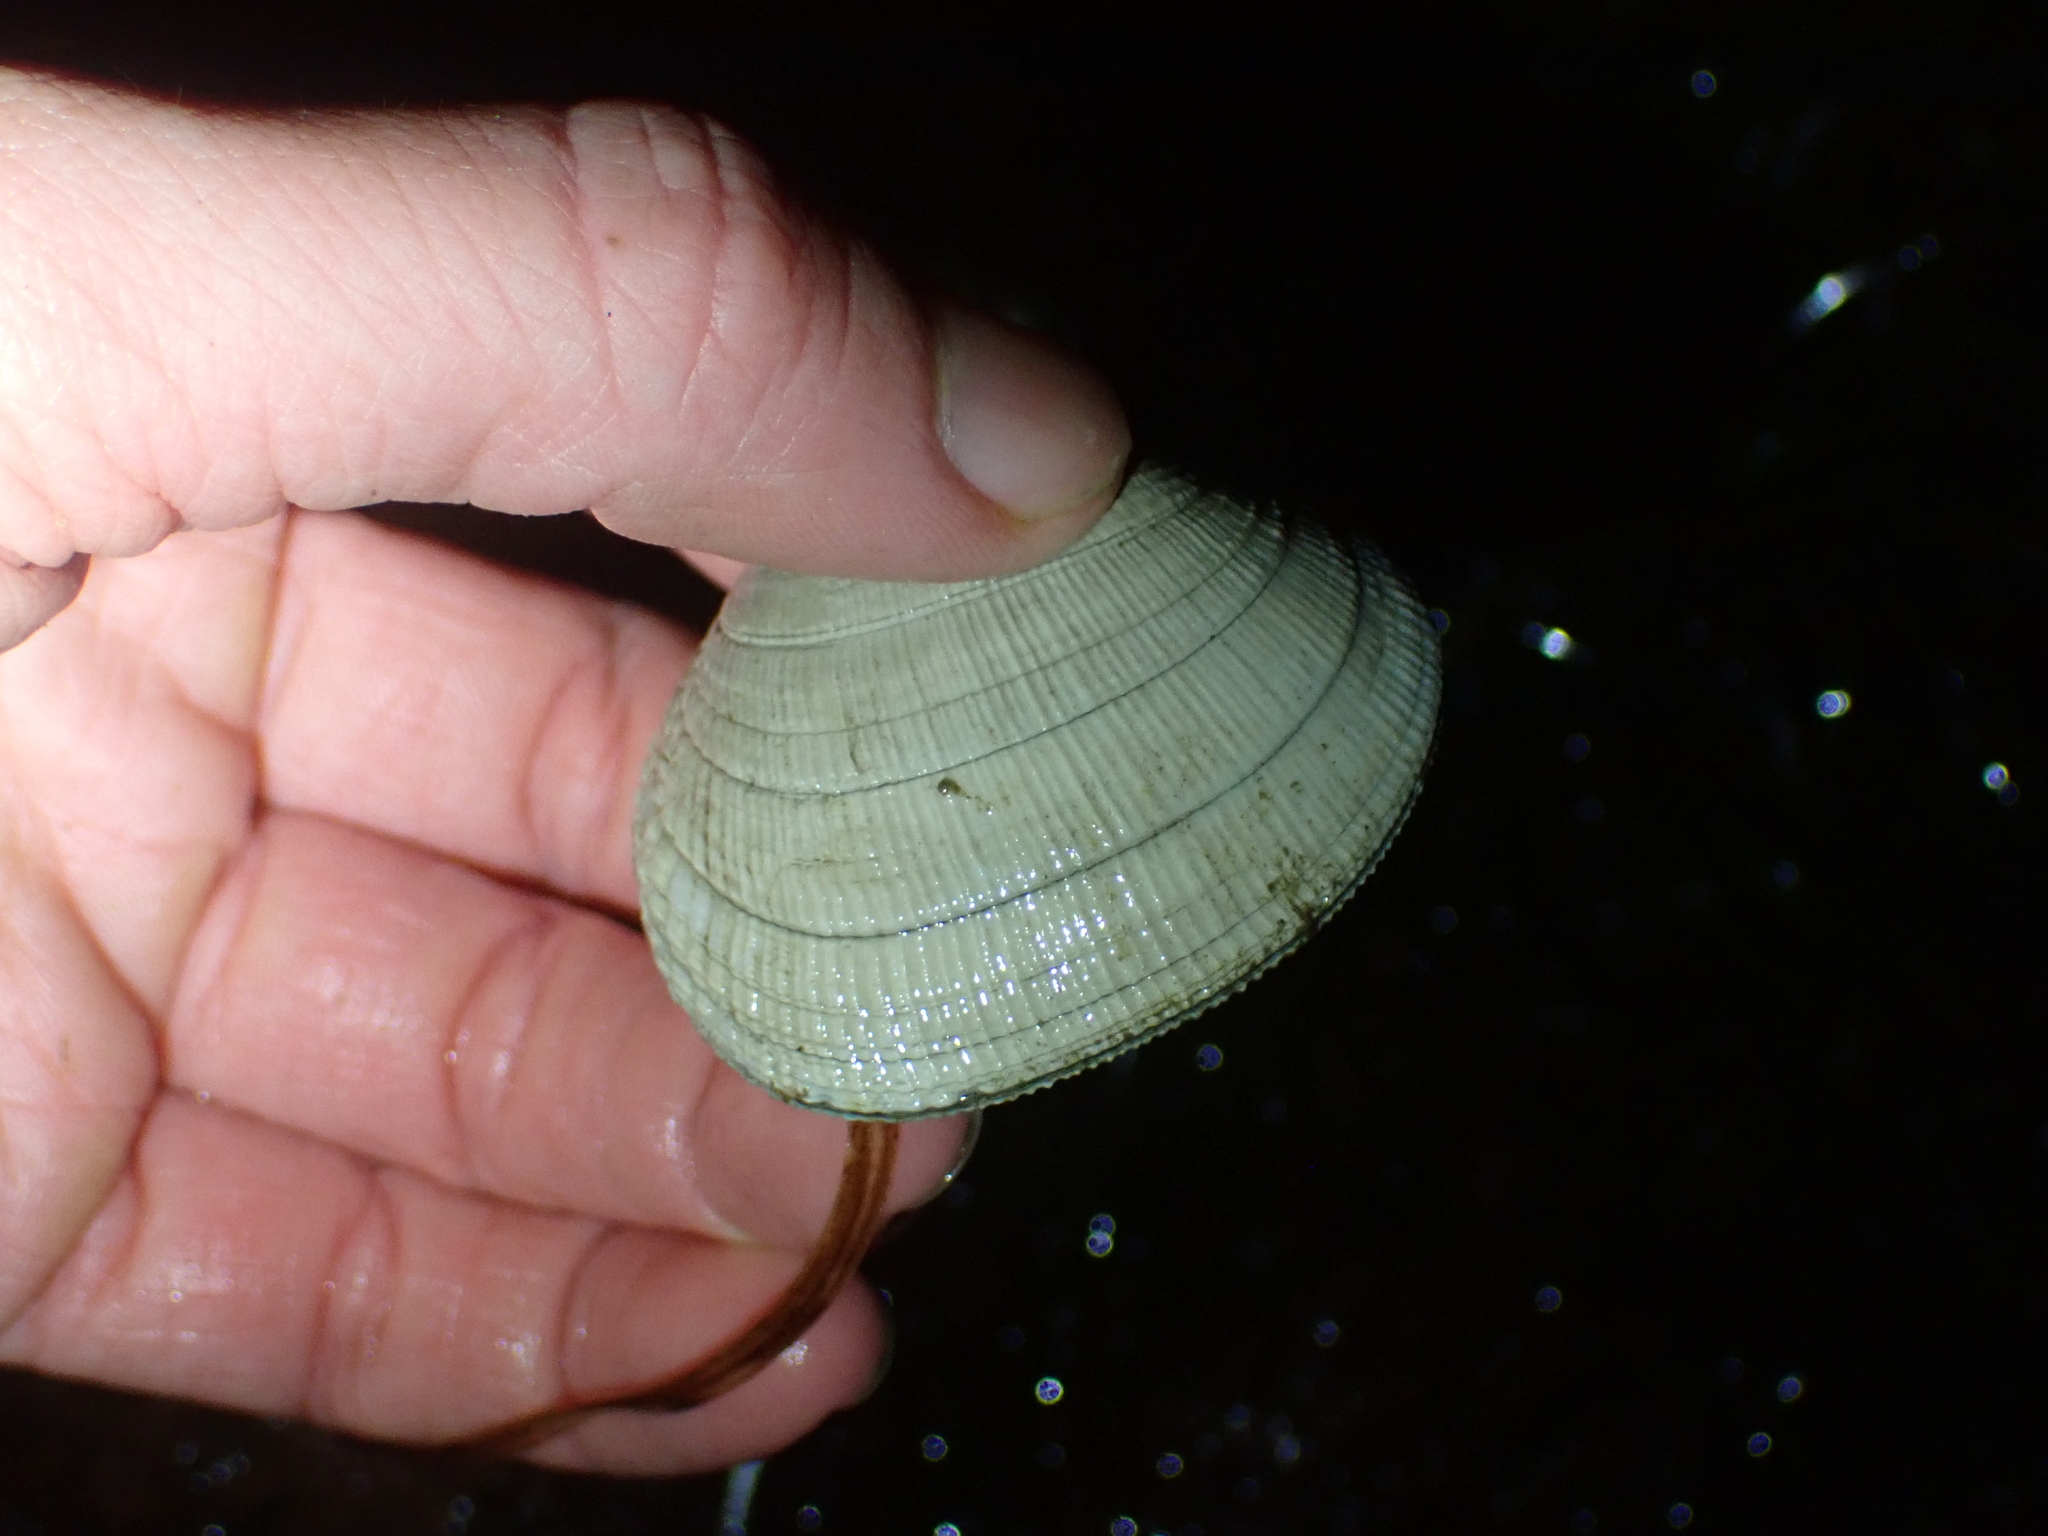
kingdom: Animalia
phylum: Mollusca
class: Bivalvia
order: Venerida
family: Veneridae
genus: Leukoma
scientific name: Leukoma staminea
